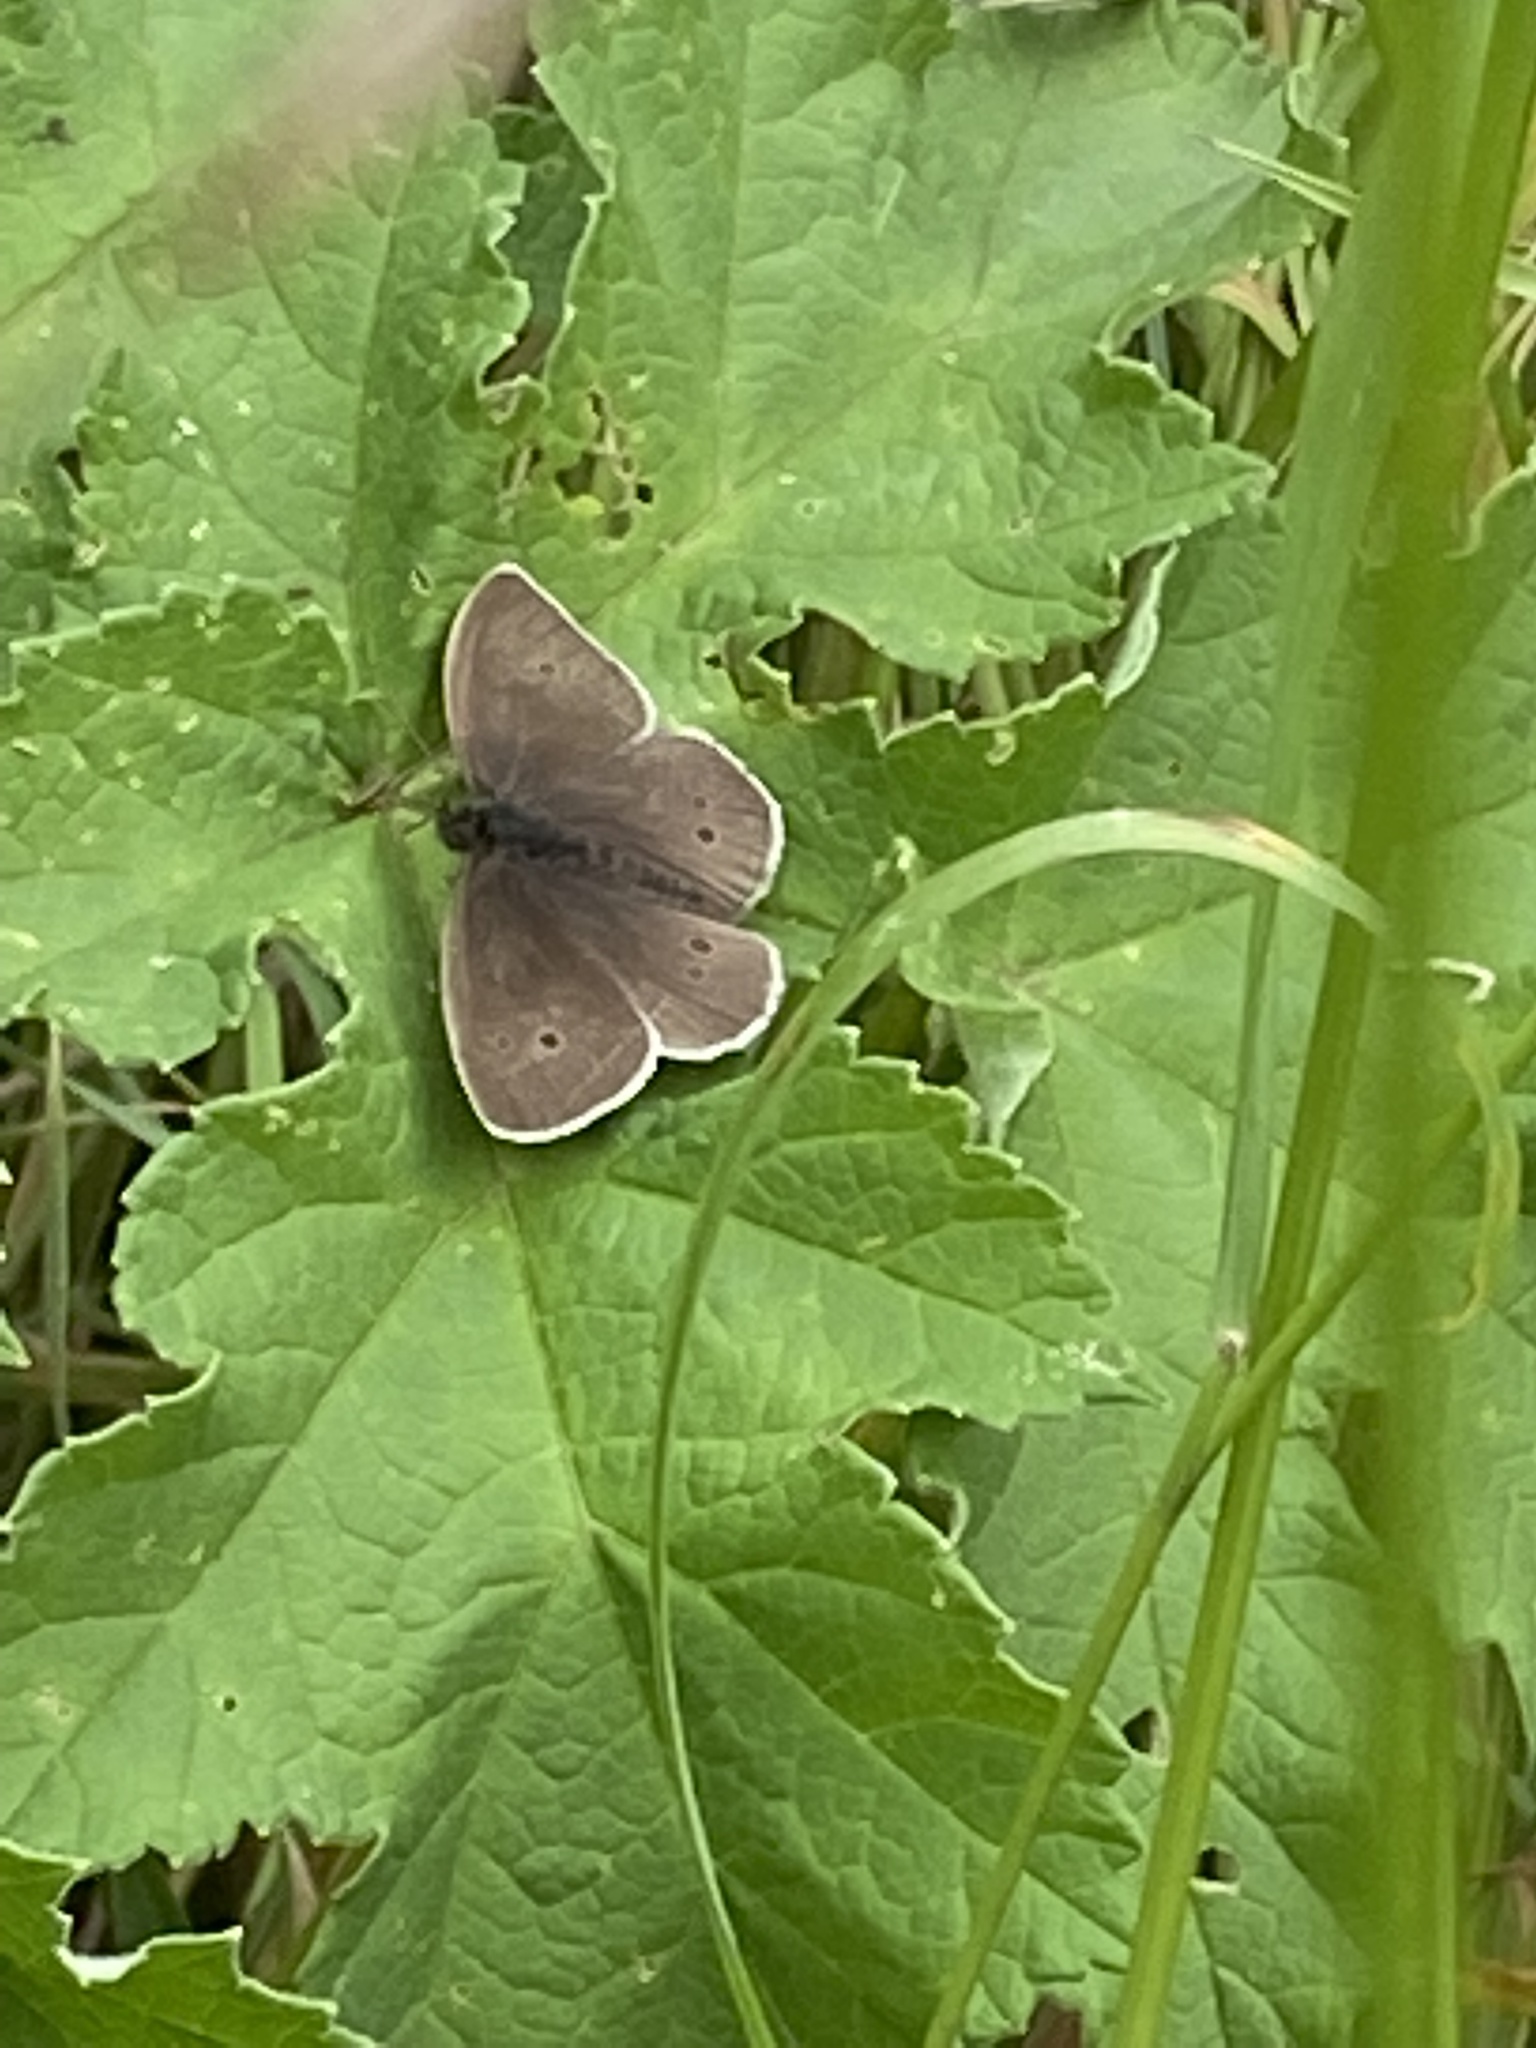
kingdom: Animalia
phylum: Arthropoda
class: Insecta
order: Lepidoptera
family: Nymphalidae
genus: Aphantopus
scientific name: Aphantopus hyperantus
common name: Ringlet
